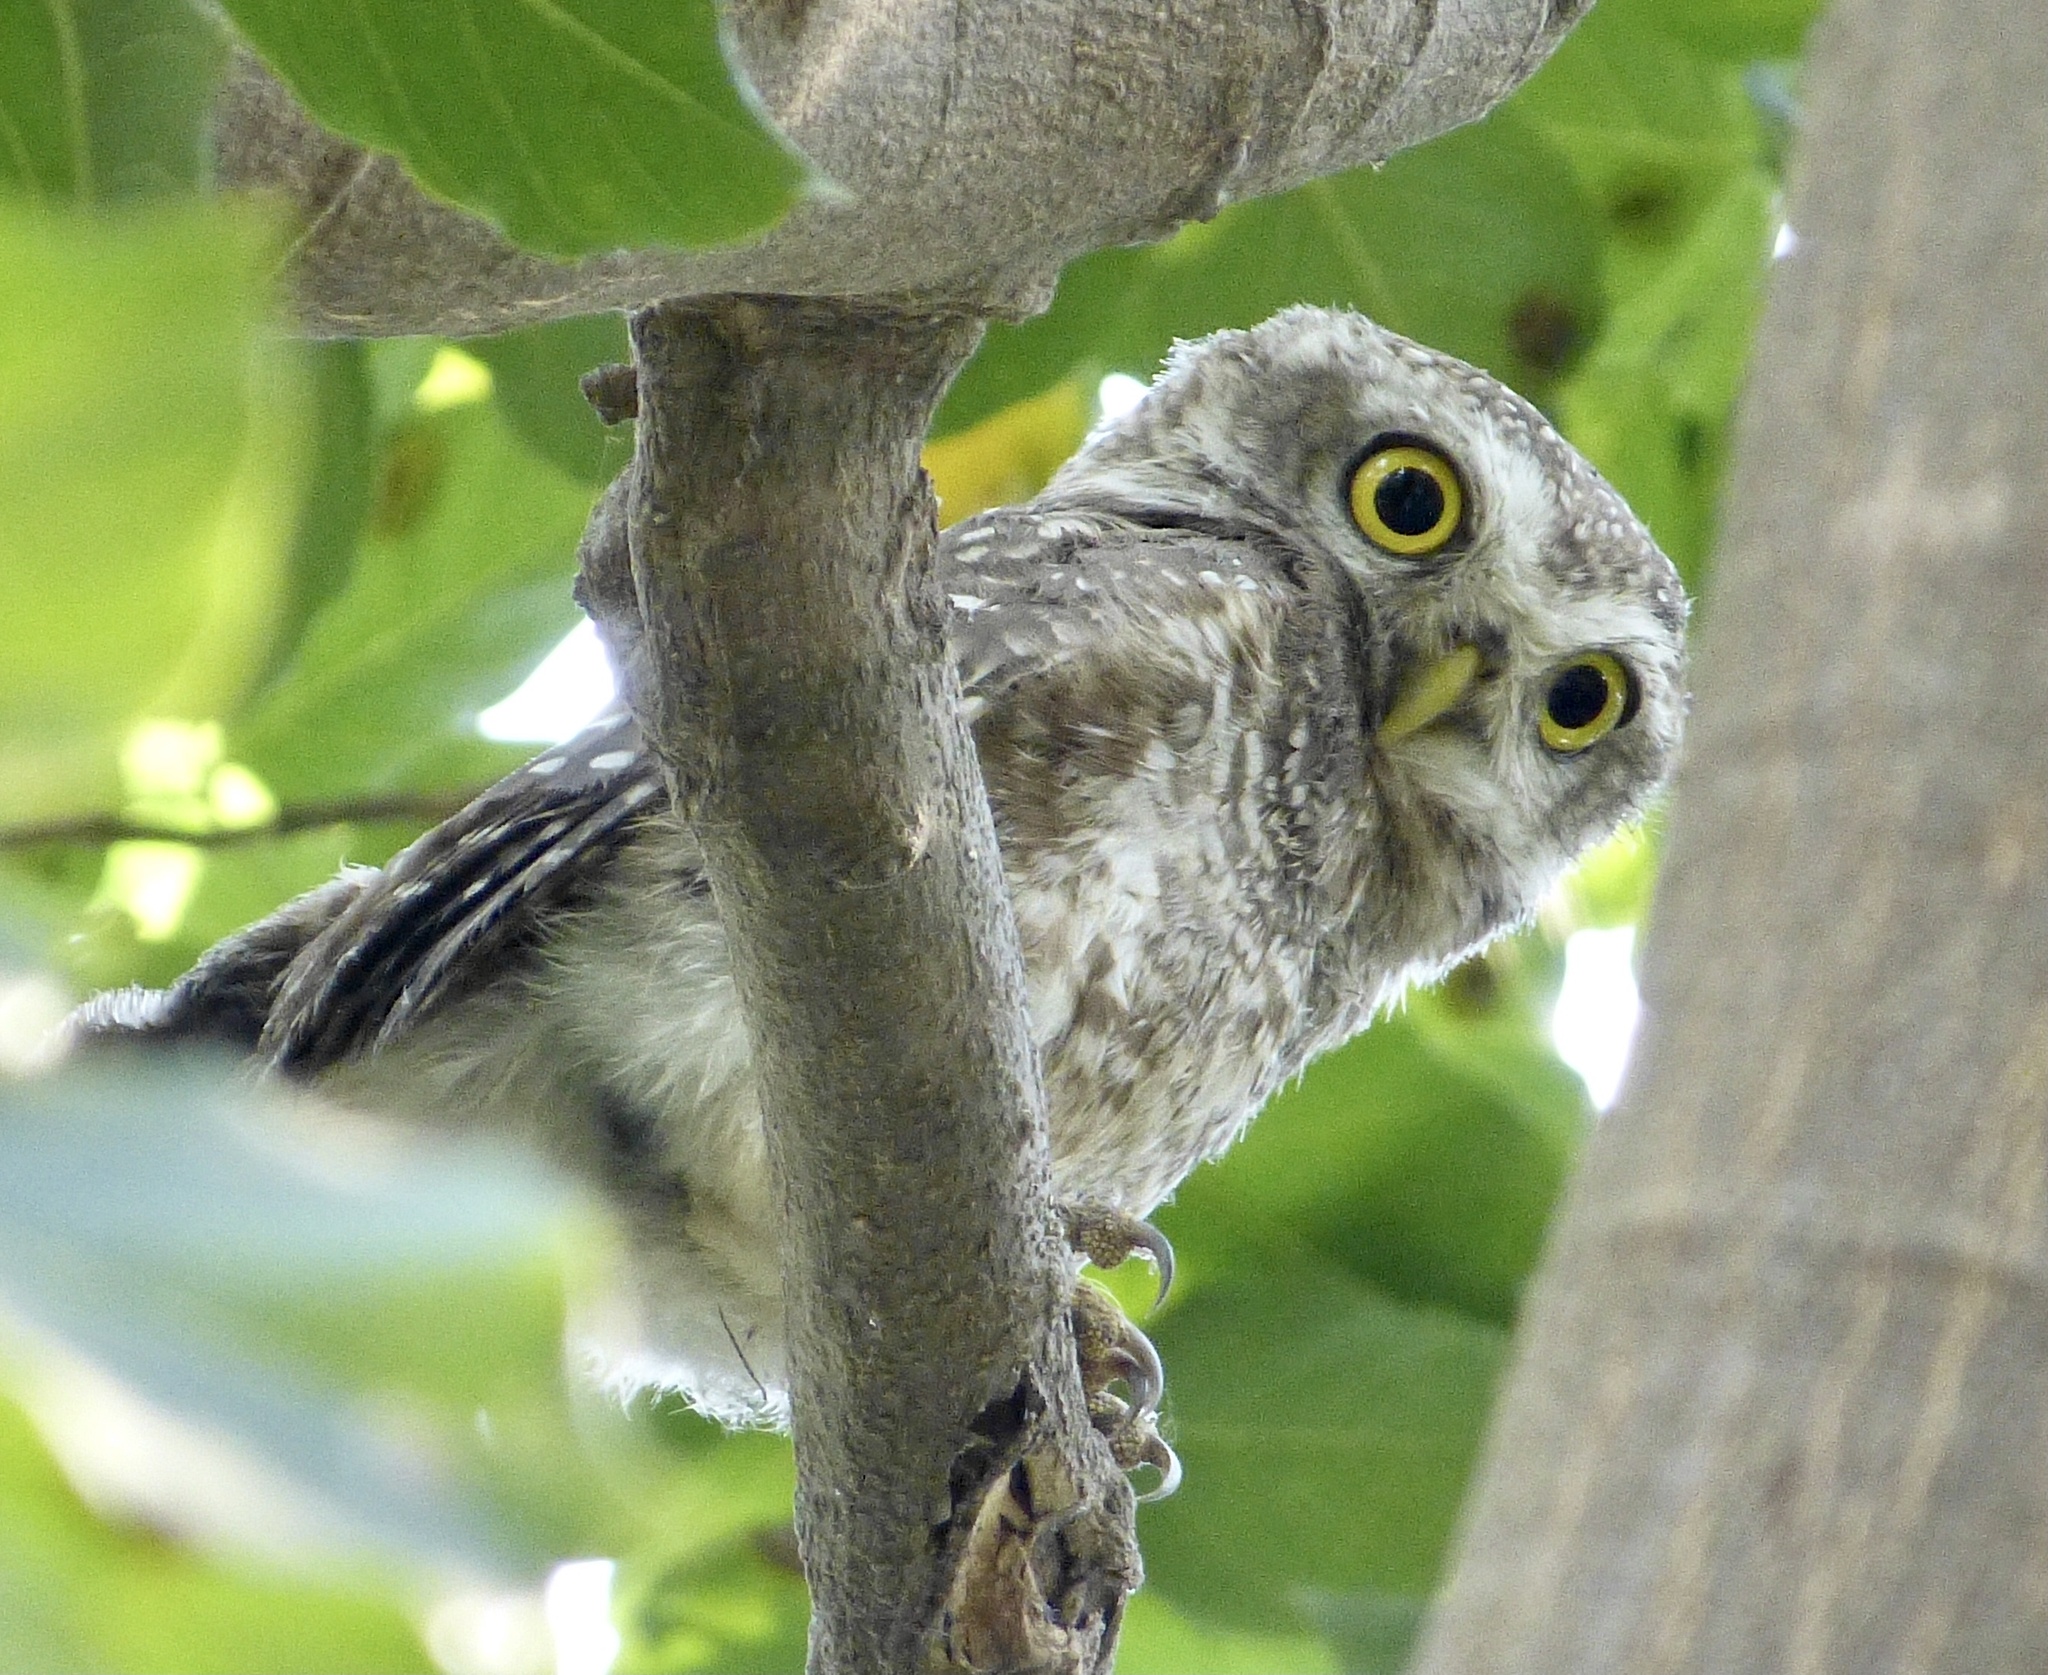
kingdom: Animalia
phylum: Chordata
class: Aves
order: Strigiformes
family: Strigidae
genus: Athene
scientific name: Athene brama
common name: Spotted owlet
